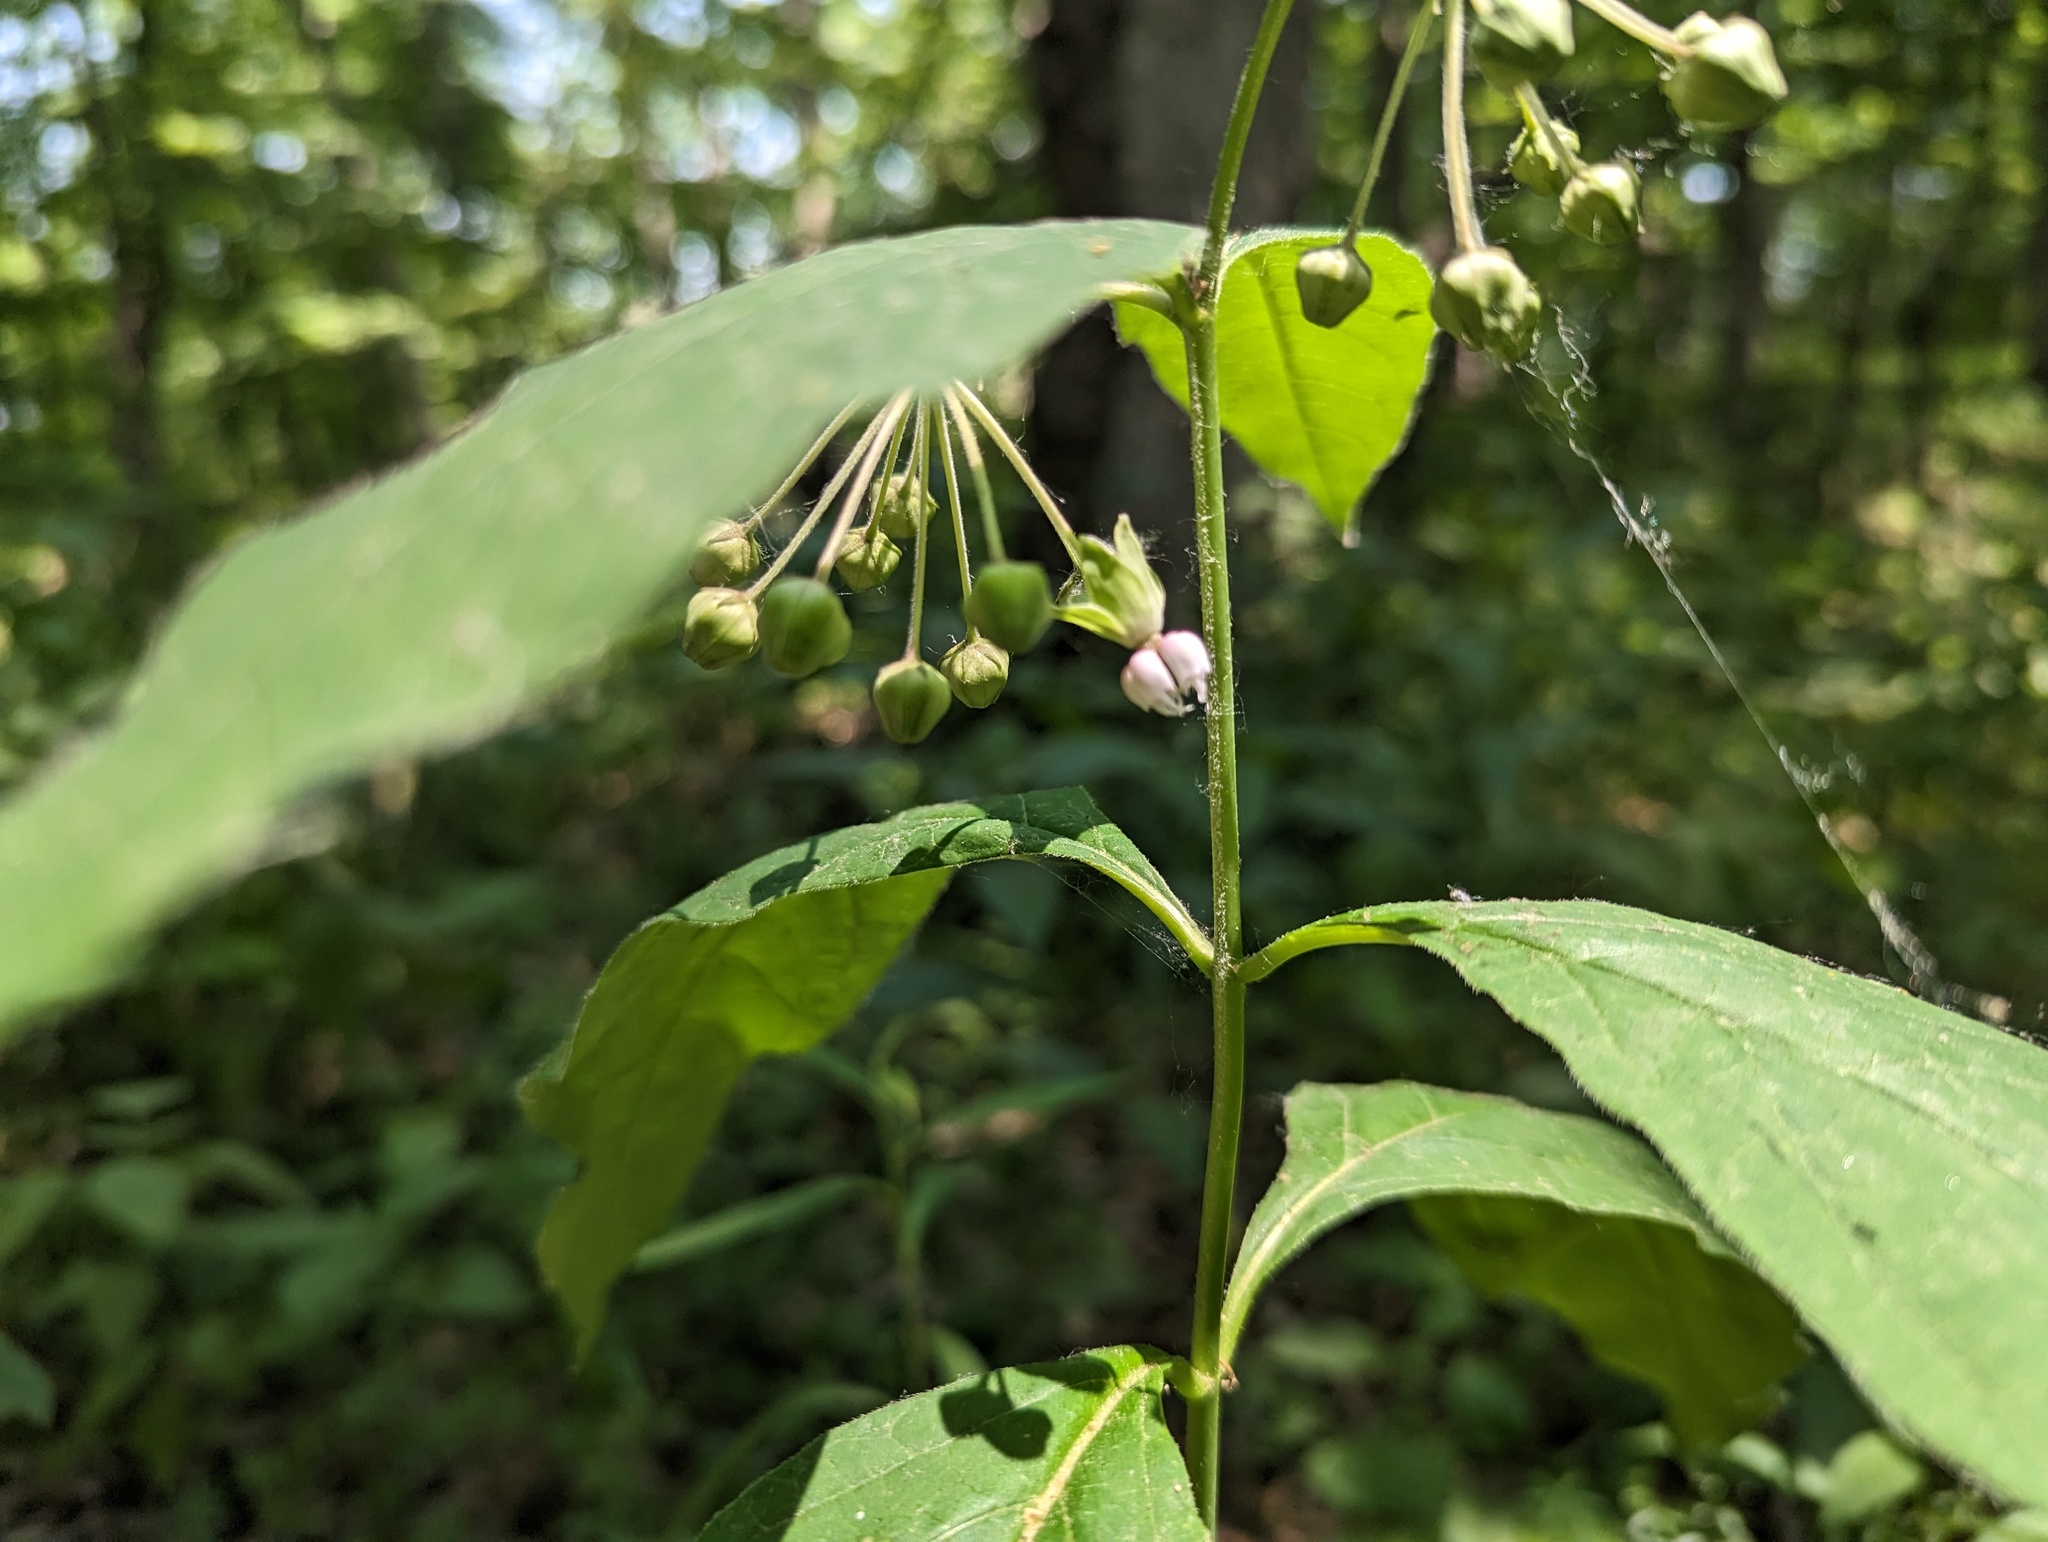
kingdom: Plantae
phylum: Tracheophyta
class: Magnoliopsida
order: Gentianales
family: Apocynaceae
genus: Asclepias
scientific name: Asclepias exaltata
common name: Poke milkweed
